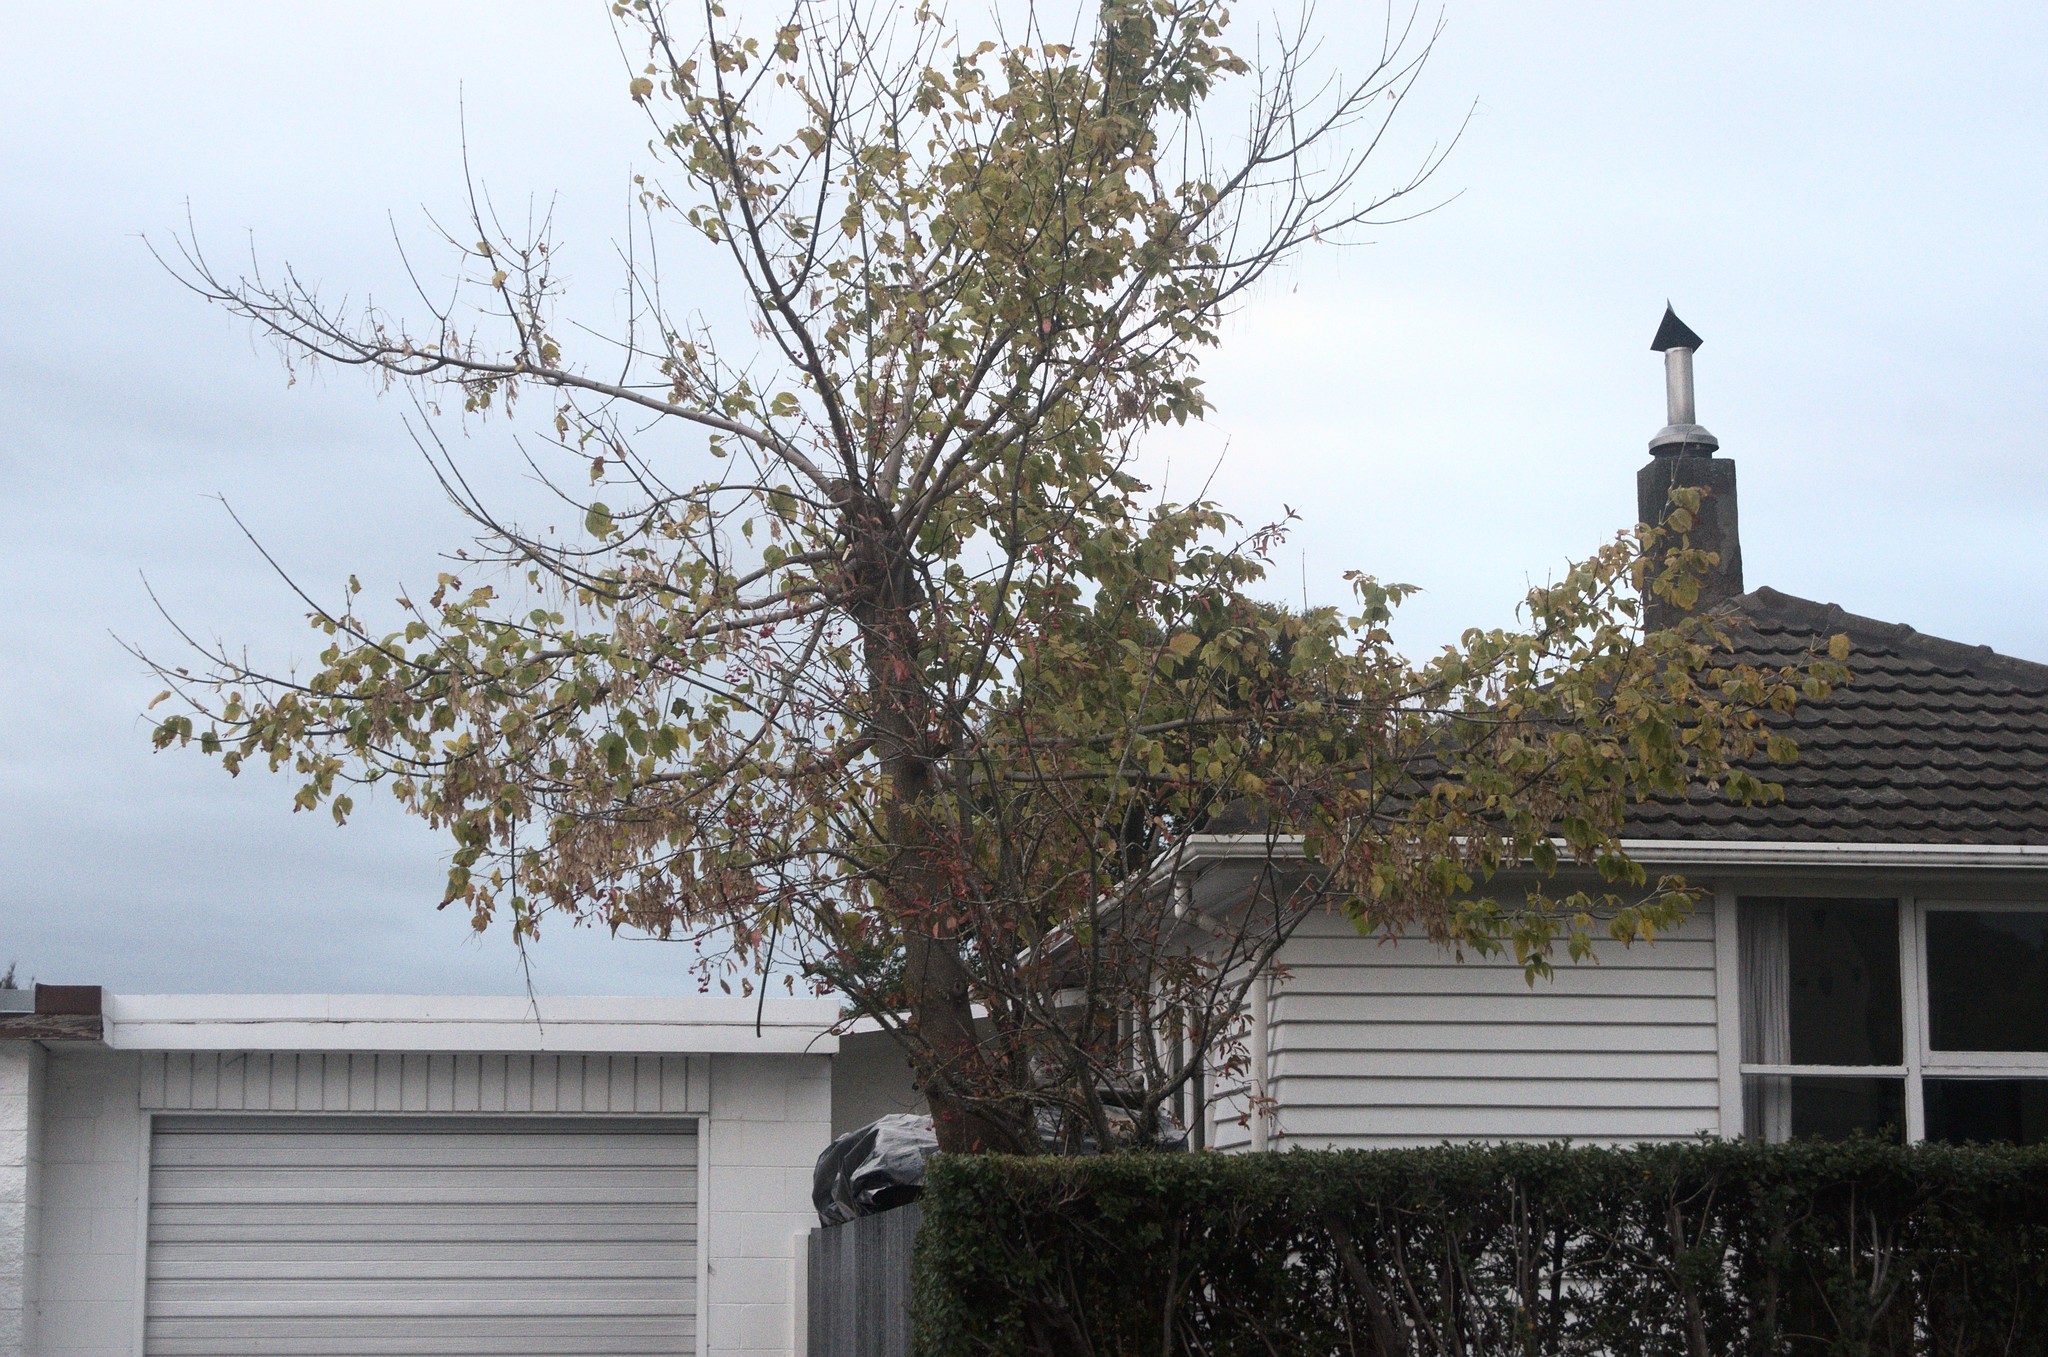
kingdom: Plantae
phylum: Tracheophyta
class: Magnoliopsida
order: Sapindales
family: Sapindaceae
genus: Acer
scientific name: Acer negundo
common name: Ashleaf maple
